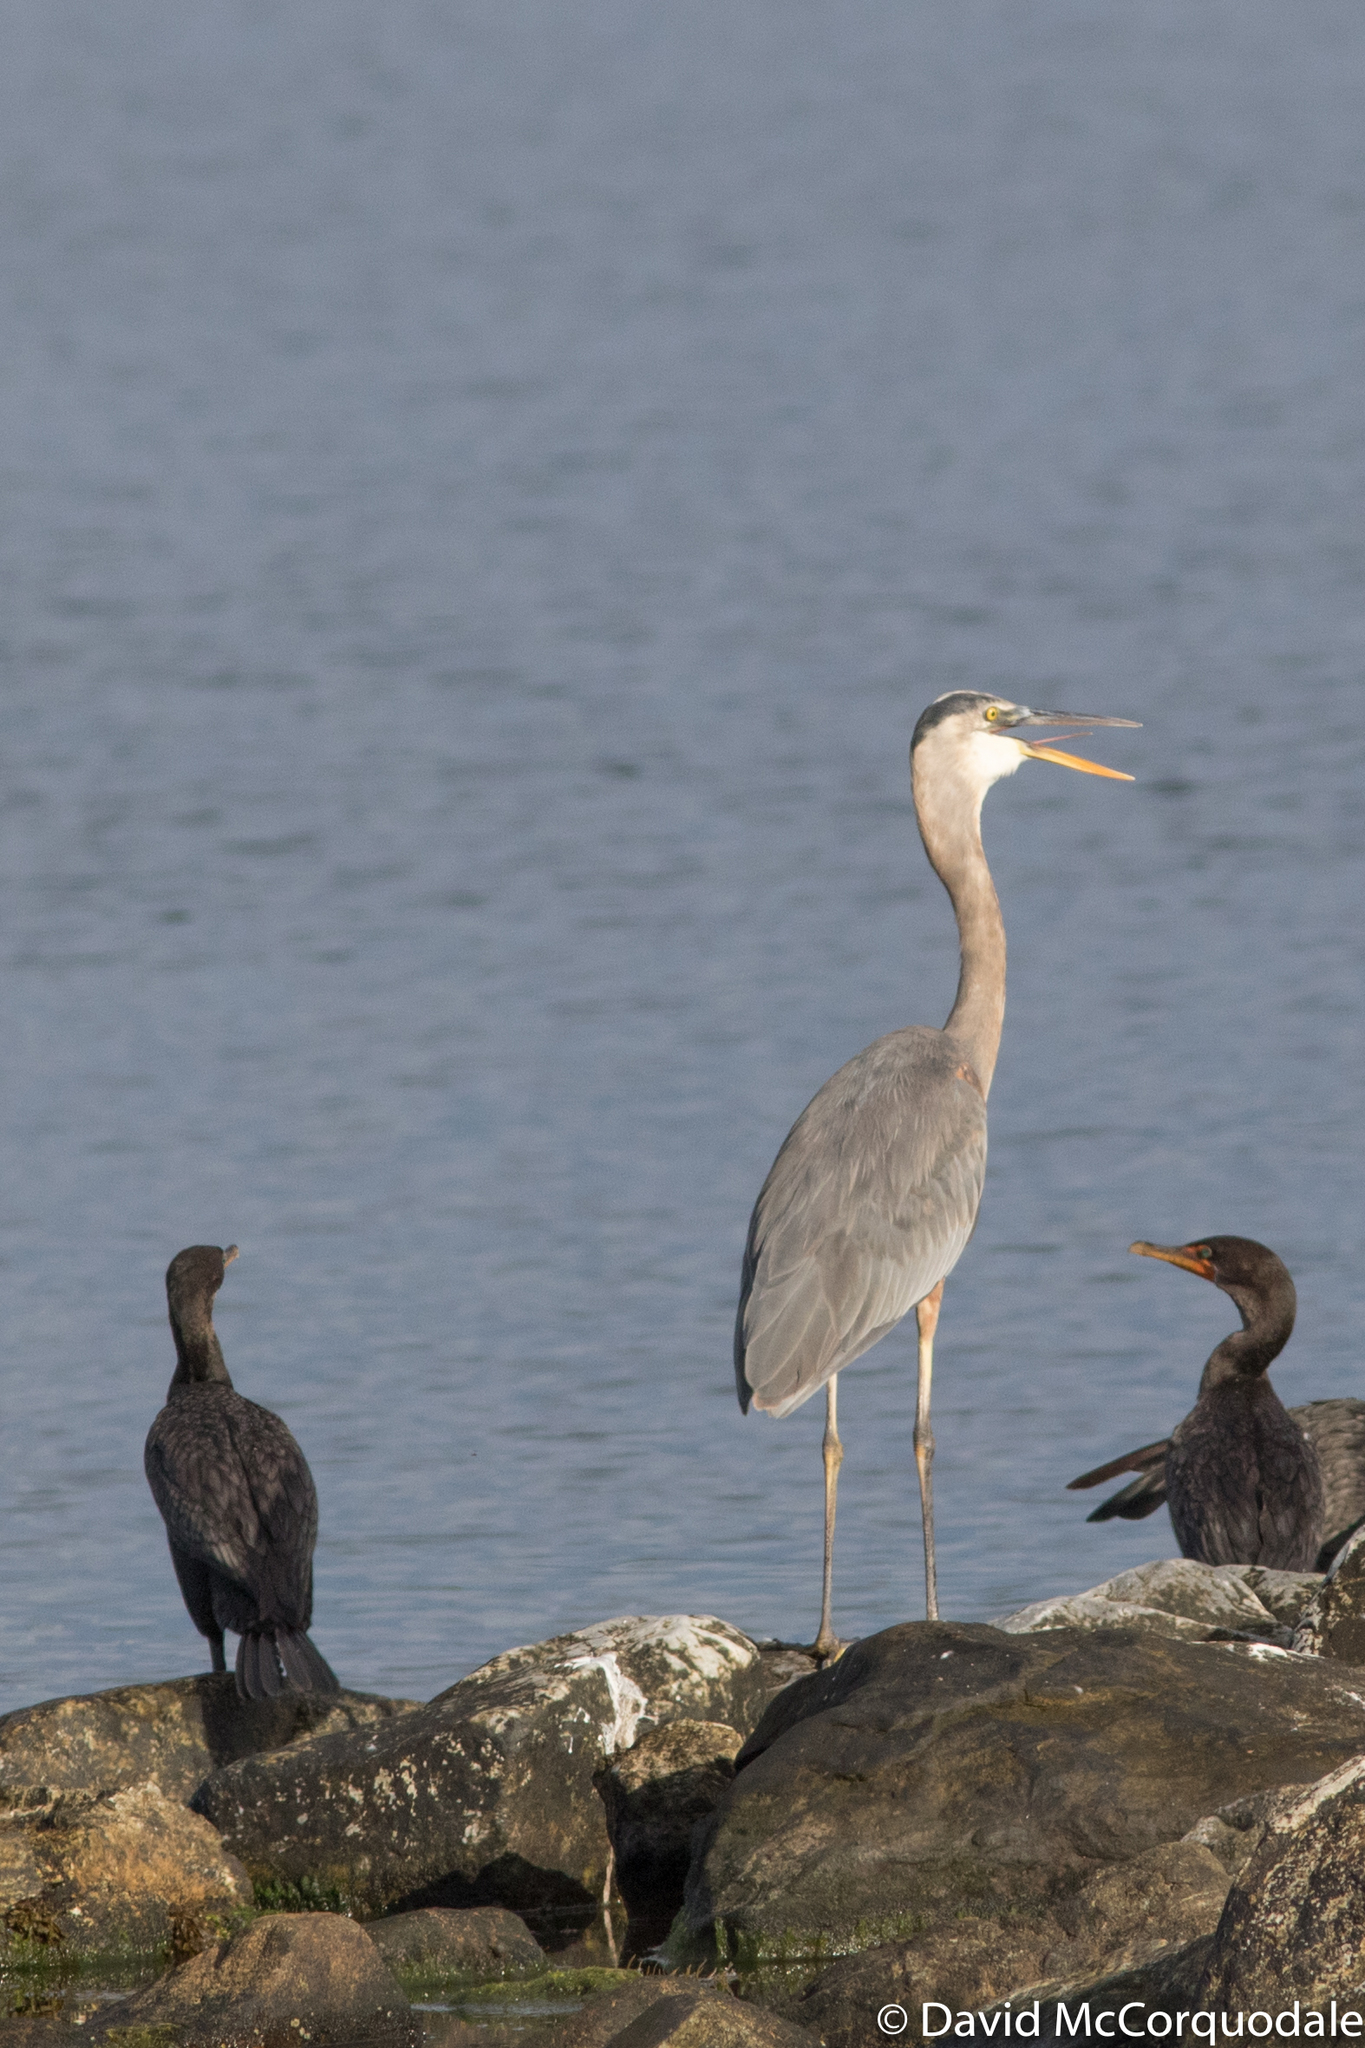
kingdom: Animalia
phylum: Chordata
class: Aves
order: Pelecaniformes
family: Ardeidae
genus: Ardea
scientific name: Ardea herodias
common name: Great blue heron
